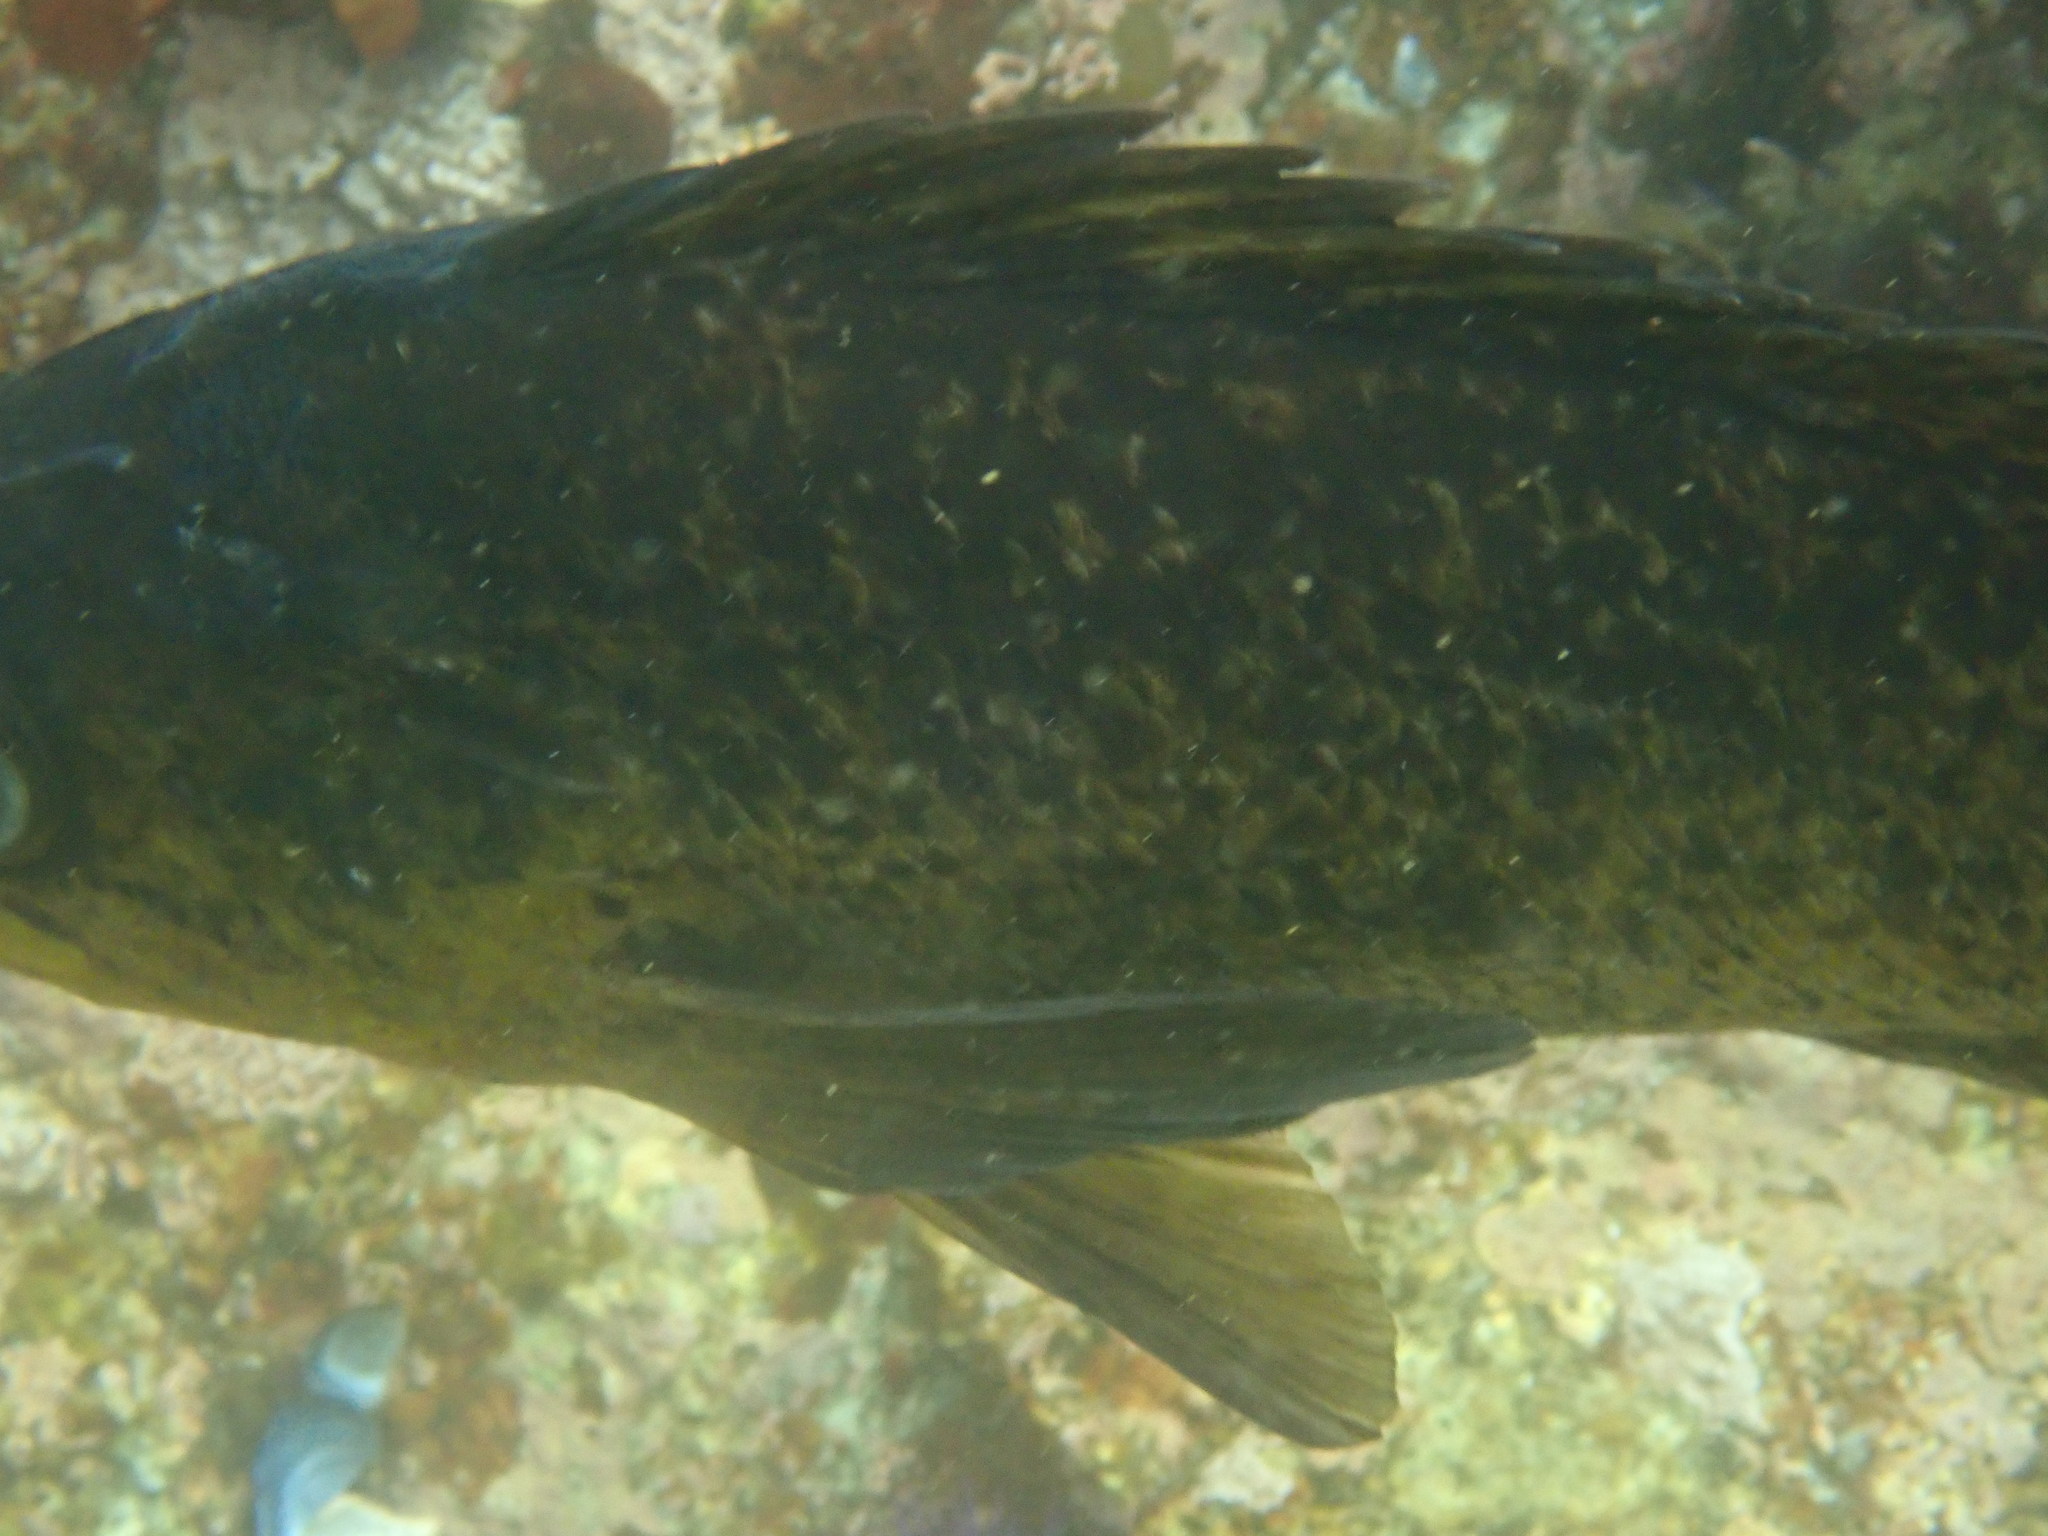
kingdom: Animalia
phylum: Chordata
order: Scorpaeniformes
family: Sebastidae
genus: Sebastes
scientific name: Sebastes atrovirens
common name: Kelp rockfish
